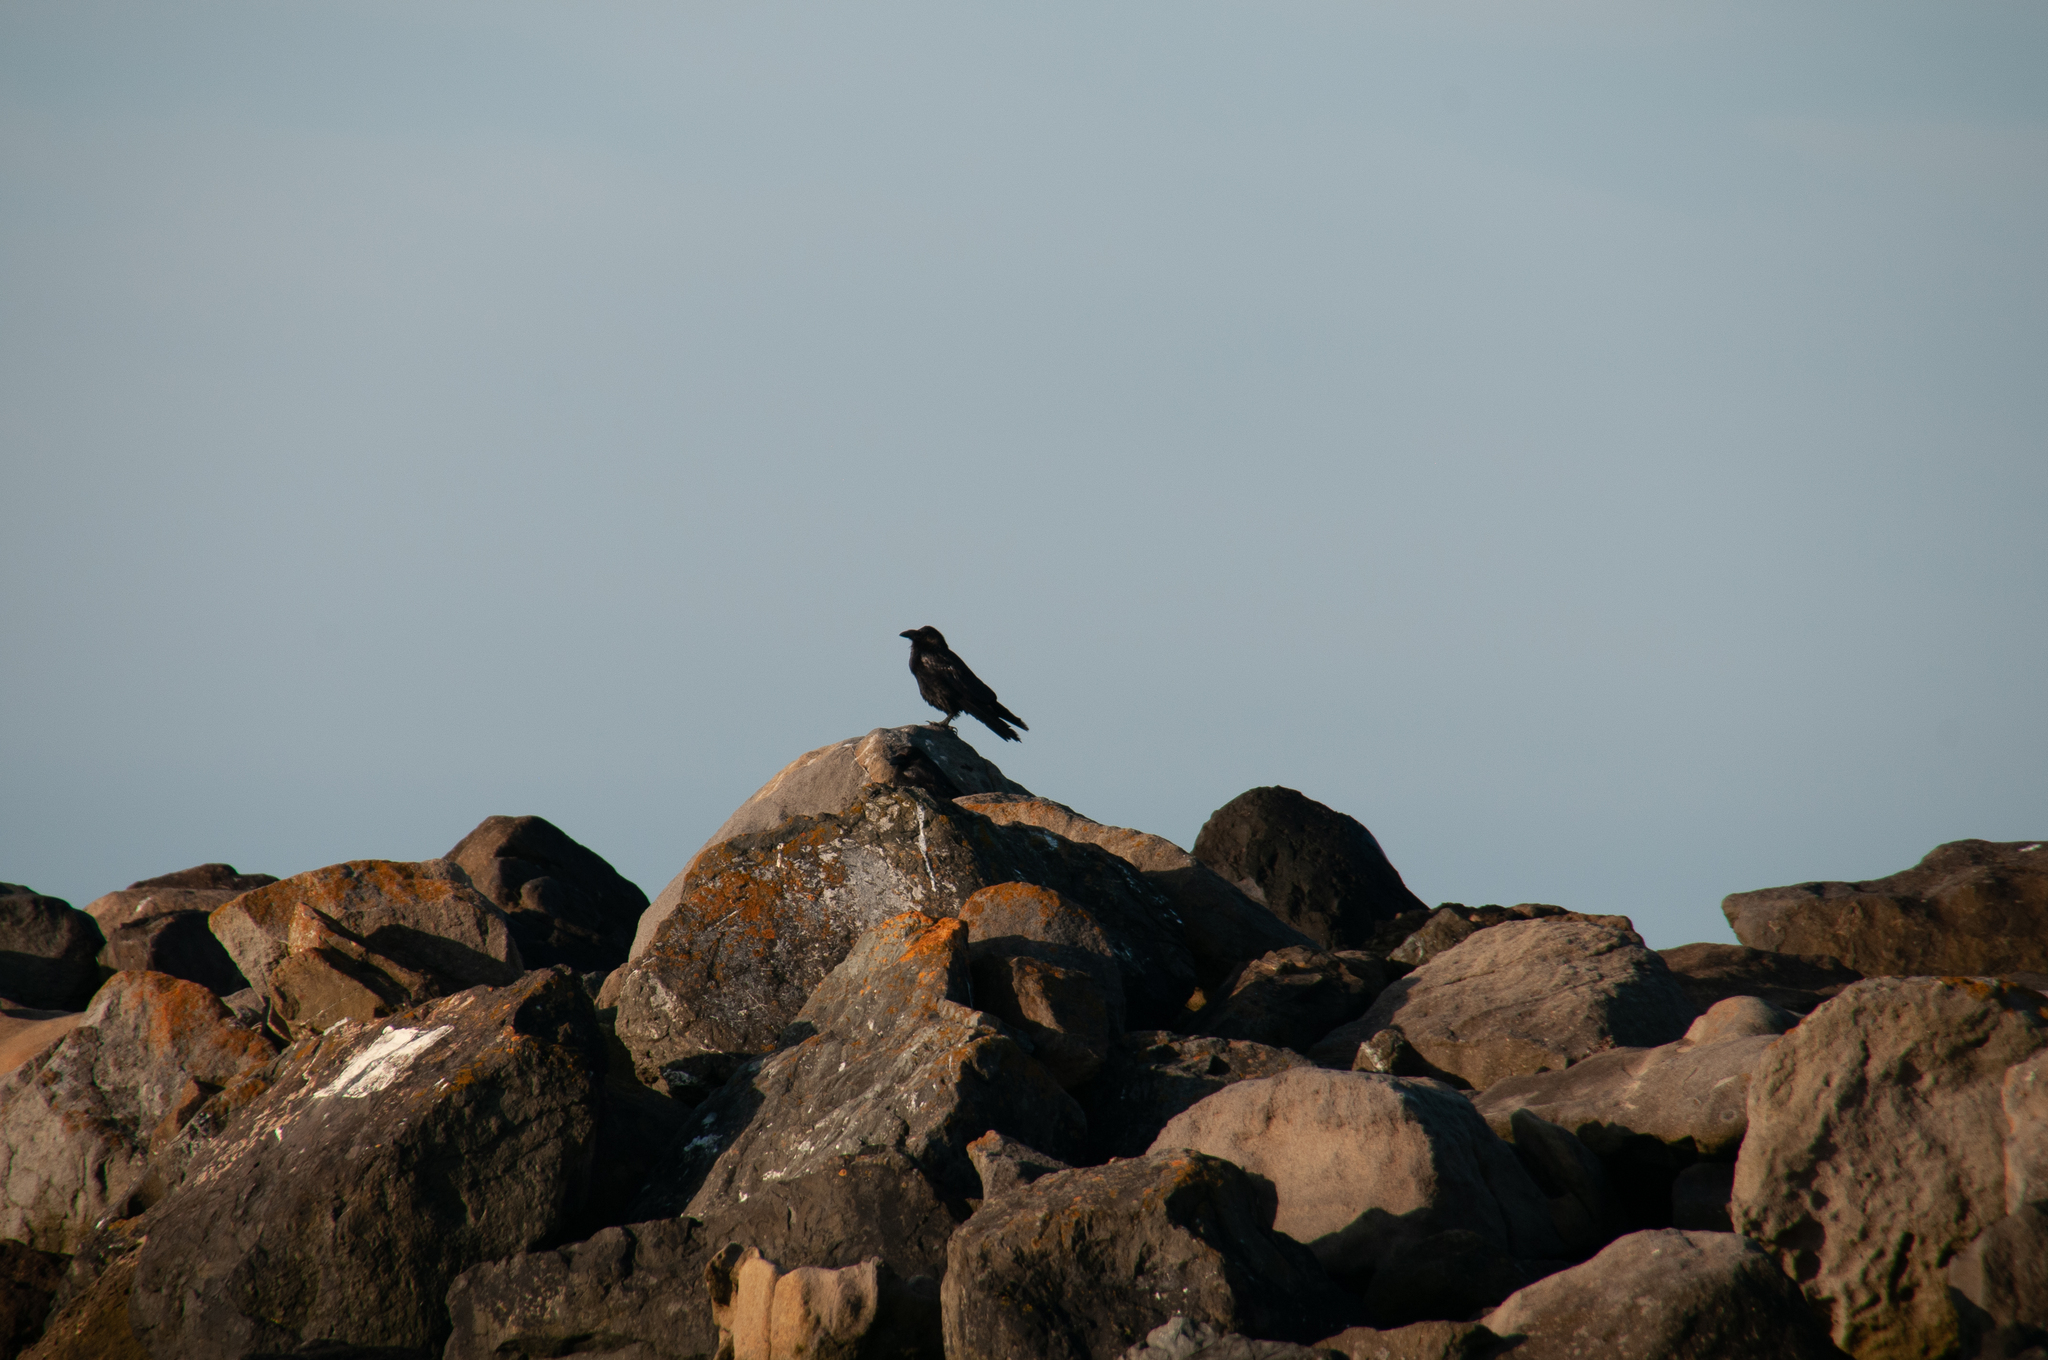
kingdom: Animalia
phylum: Chordata
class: Aves
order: Passeriformes
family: Corvidae
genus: Corvus
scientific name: Corvus corax
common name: Common raven
